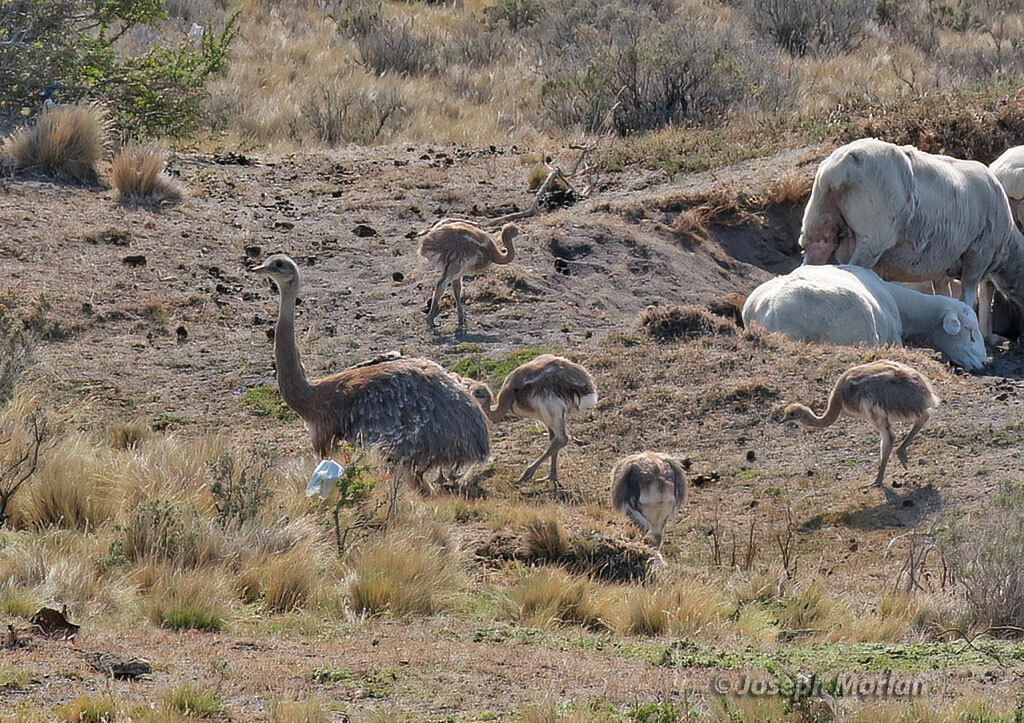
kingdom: Animalia
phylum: Chordata
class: Aves
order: Rheiformes
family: Rheidae
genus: Rhea
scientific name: Rhea pennata
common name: Lesser rhea
